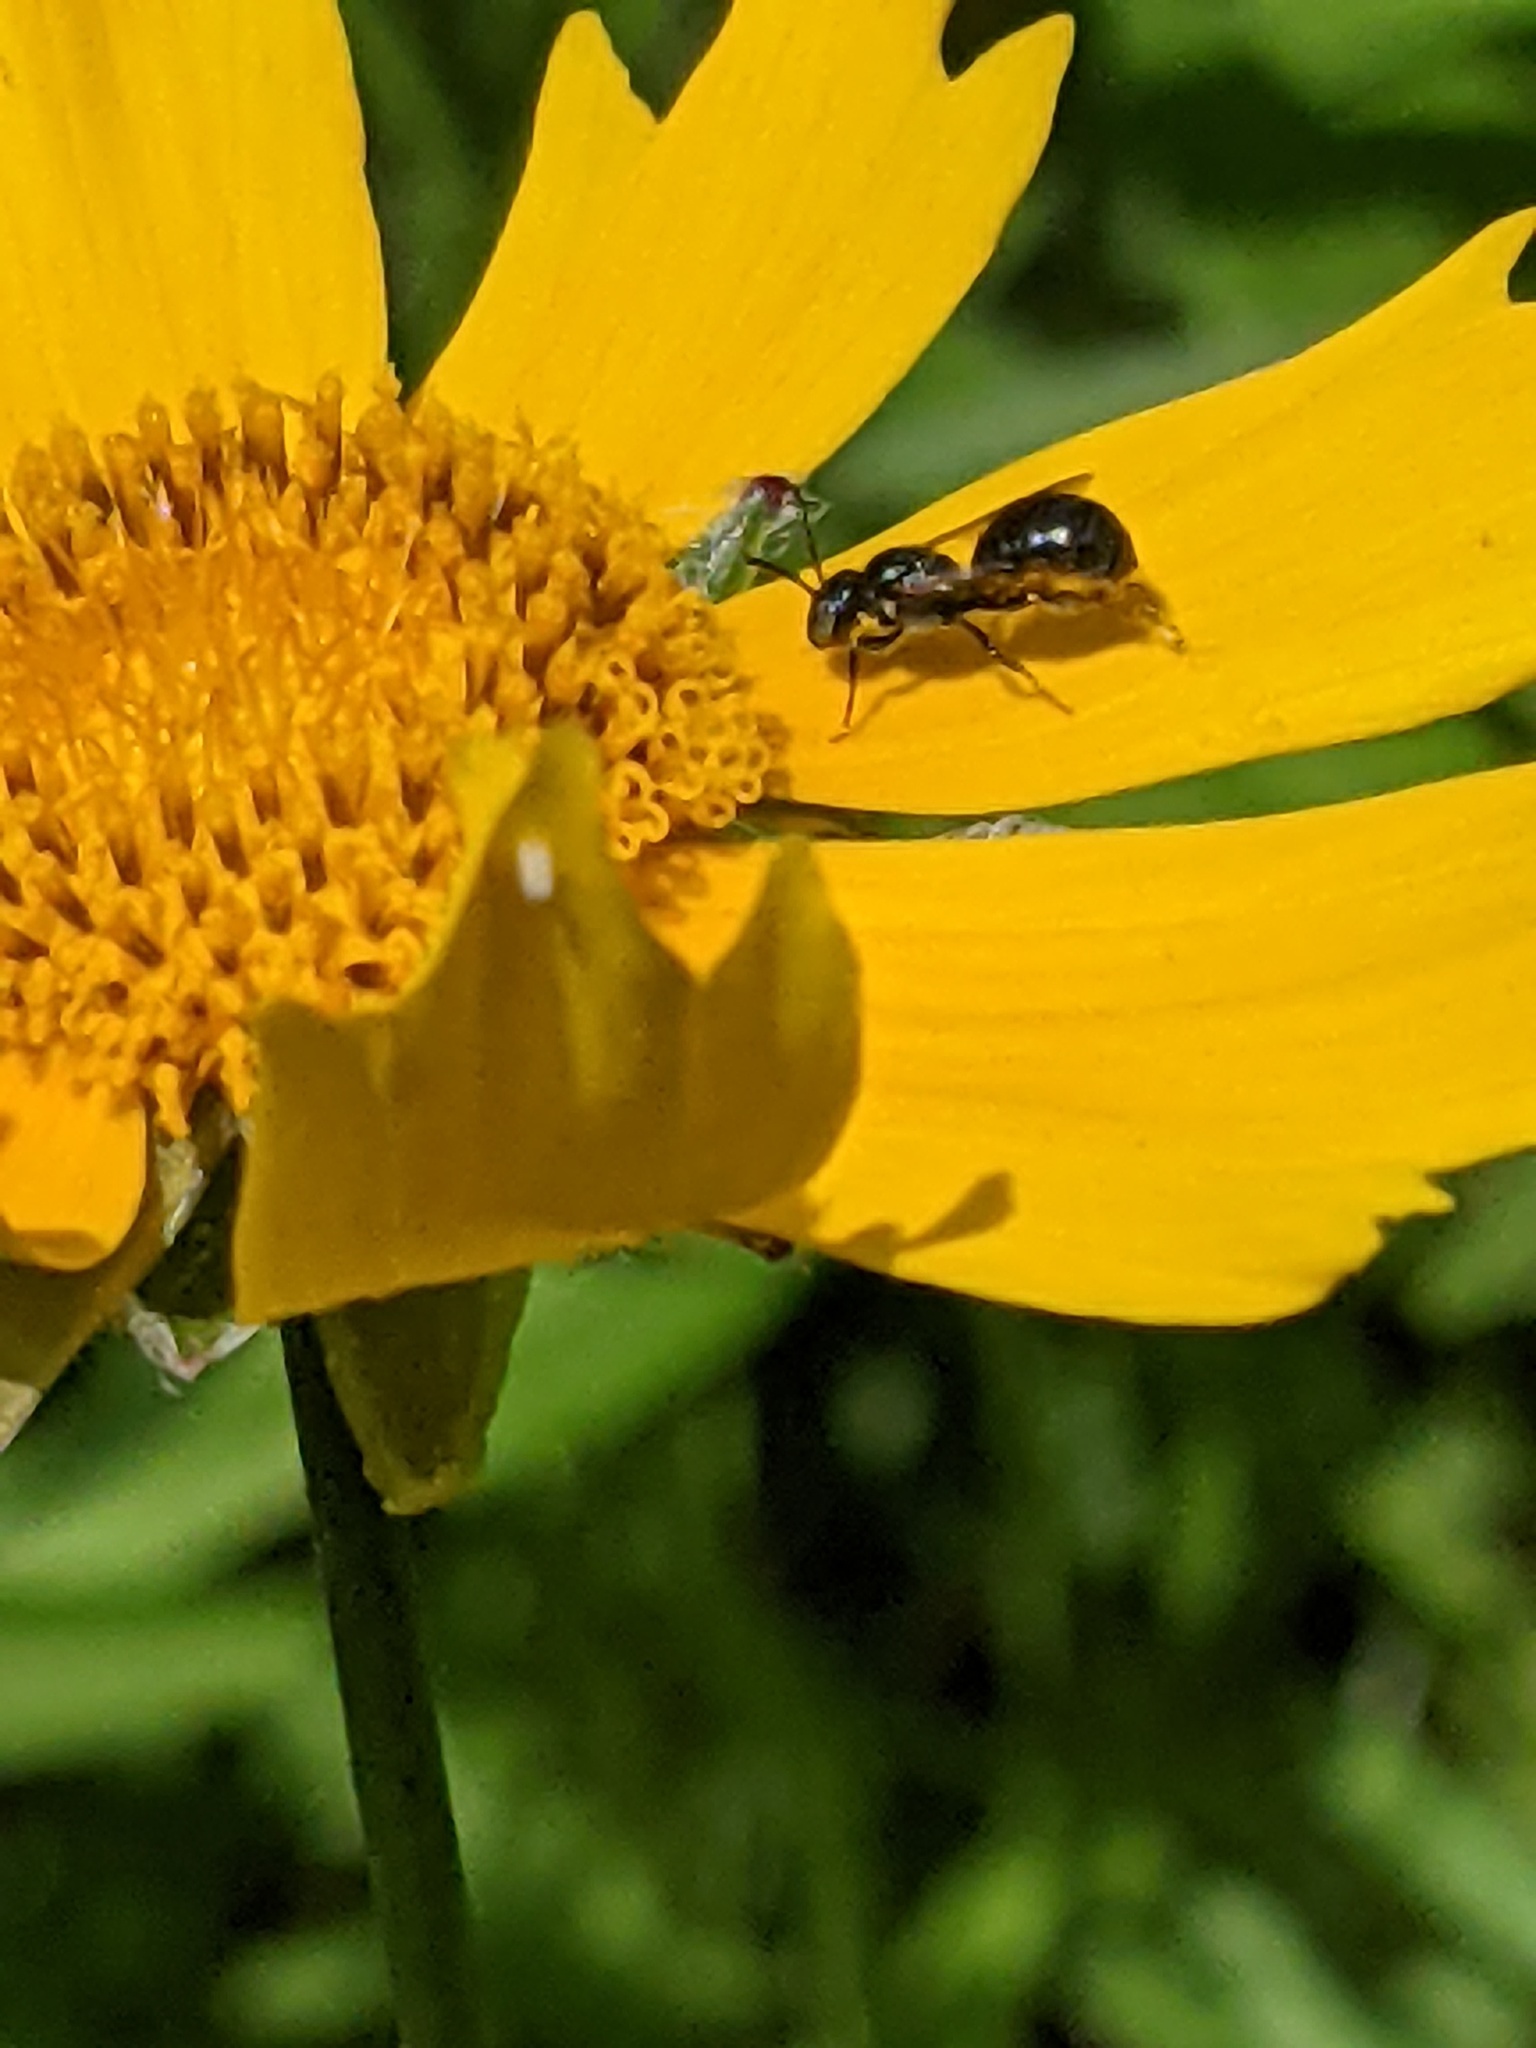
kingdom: Animalia
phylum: Arthropoda
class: Insecta
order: Hymenoptera
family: Apidae
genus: Zadontomerus
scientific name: Zadontomerus
